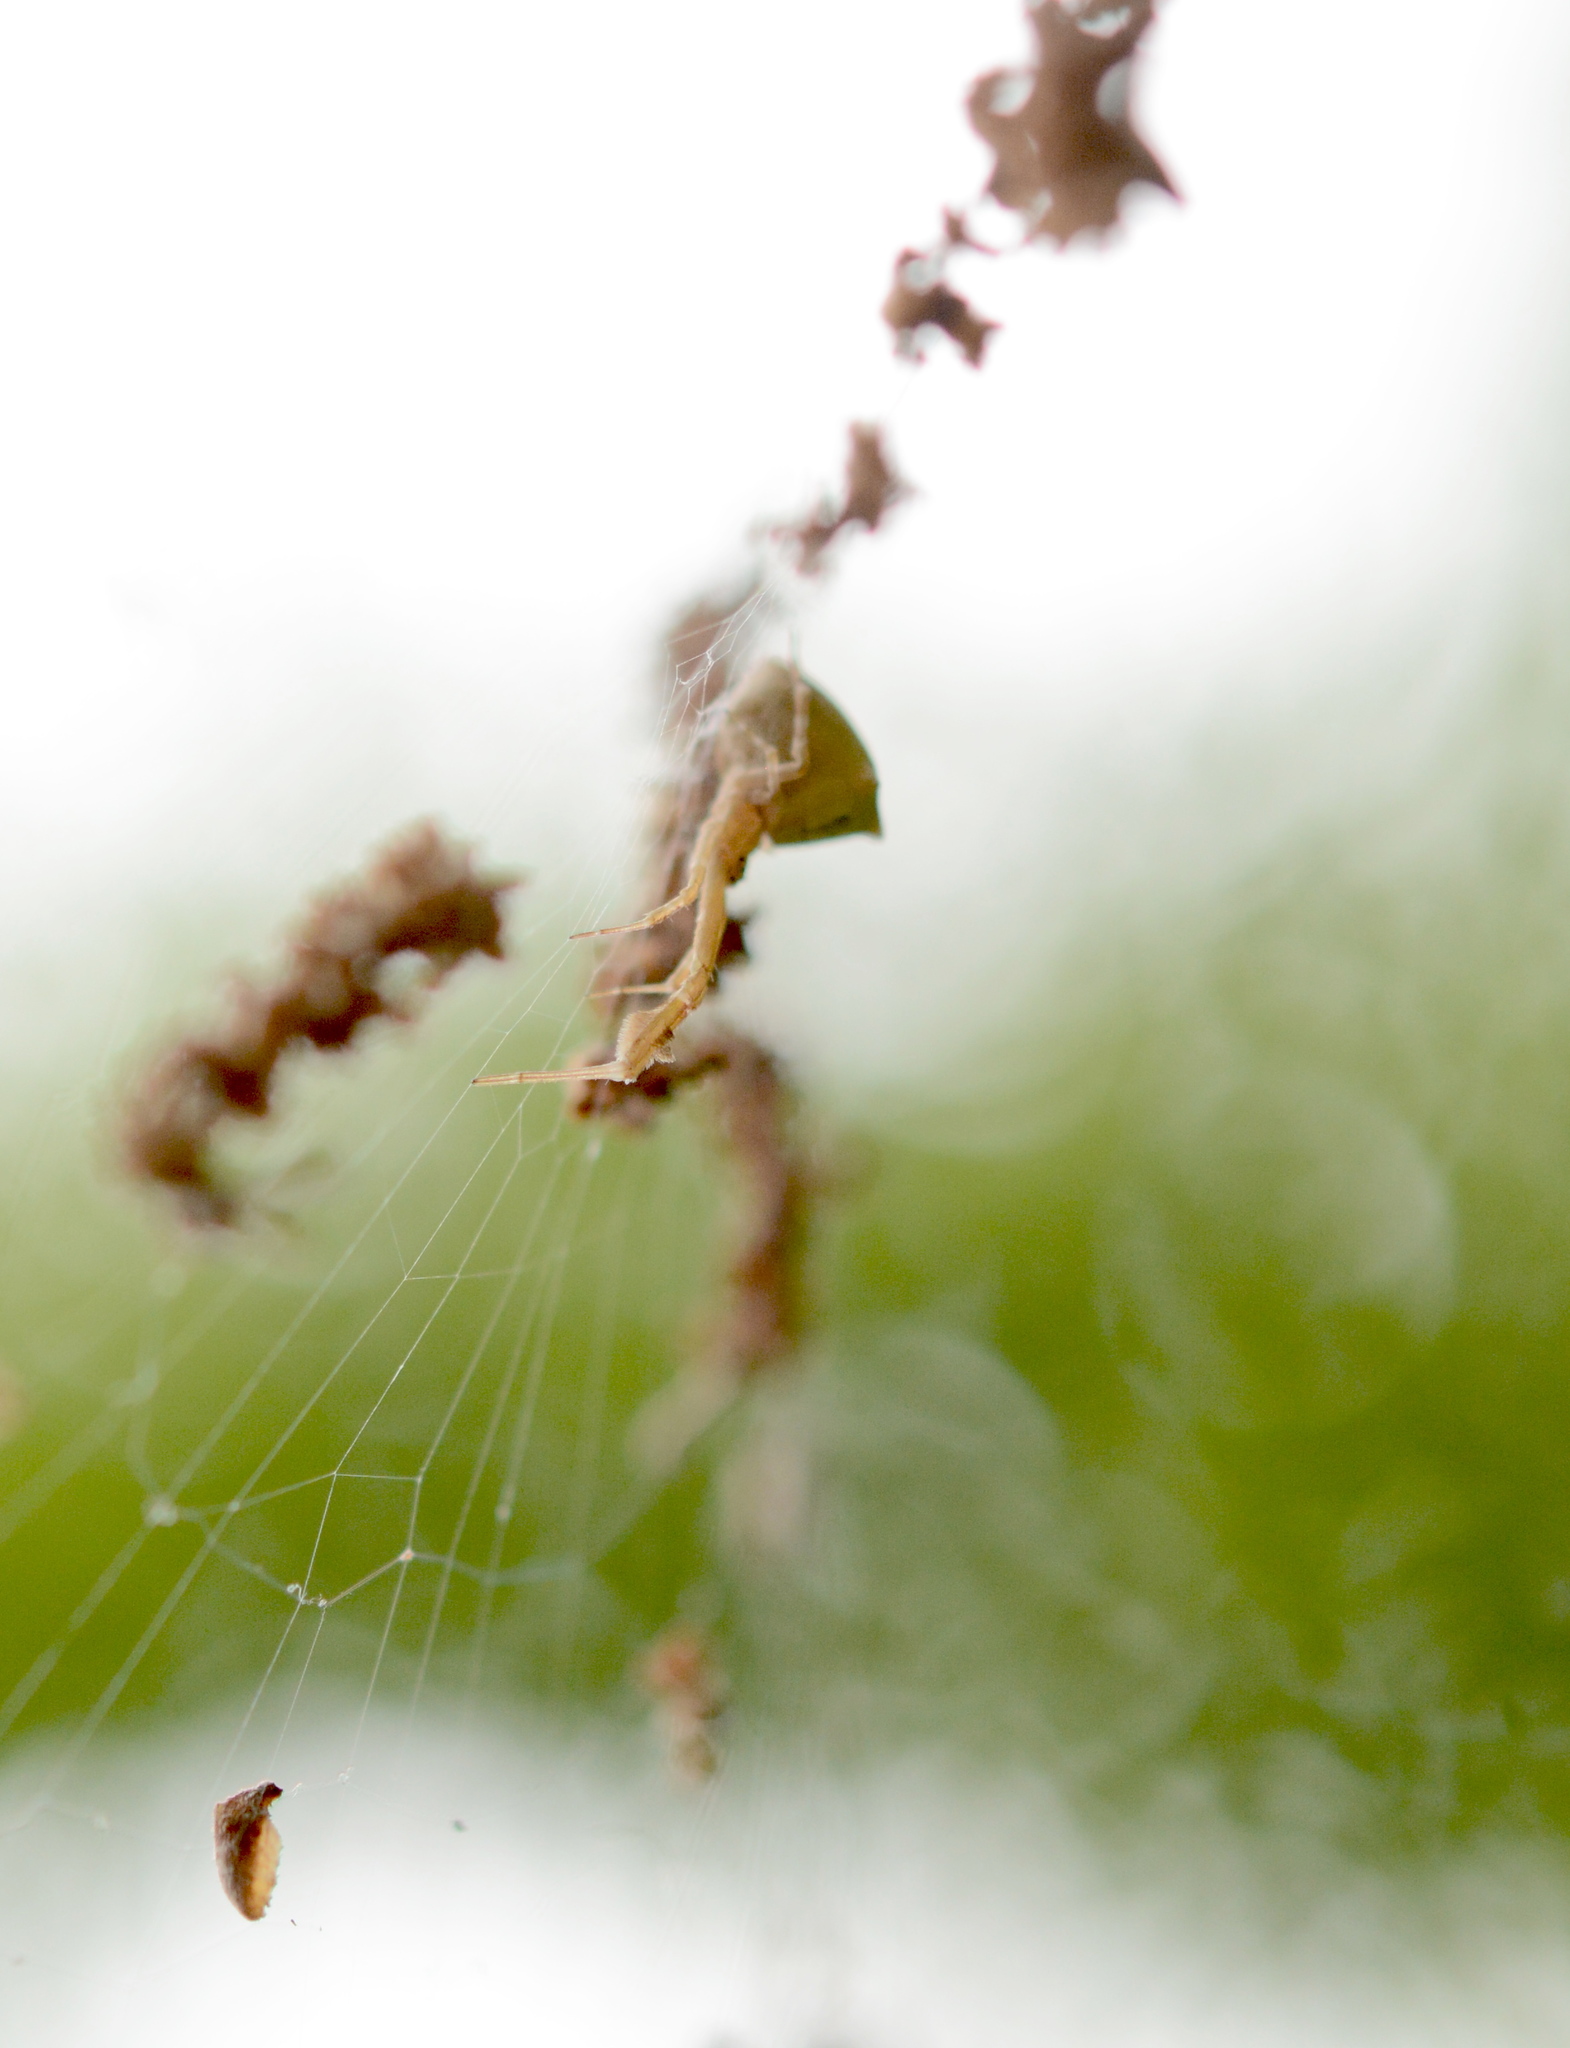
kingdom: Animalia
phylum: Arthropoda
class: Arachnida
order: Araneae
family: Uloboridae
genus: Uloborus
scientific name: Uloborus glomosus
